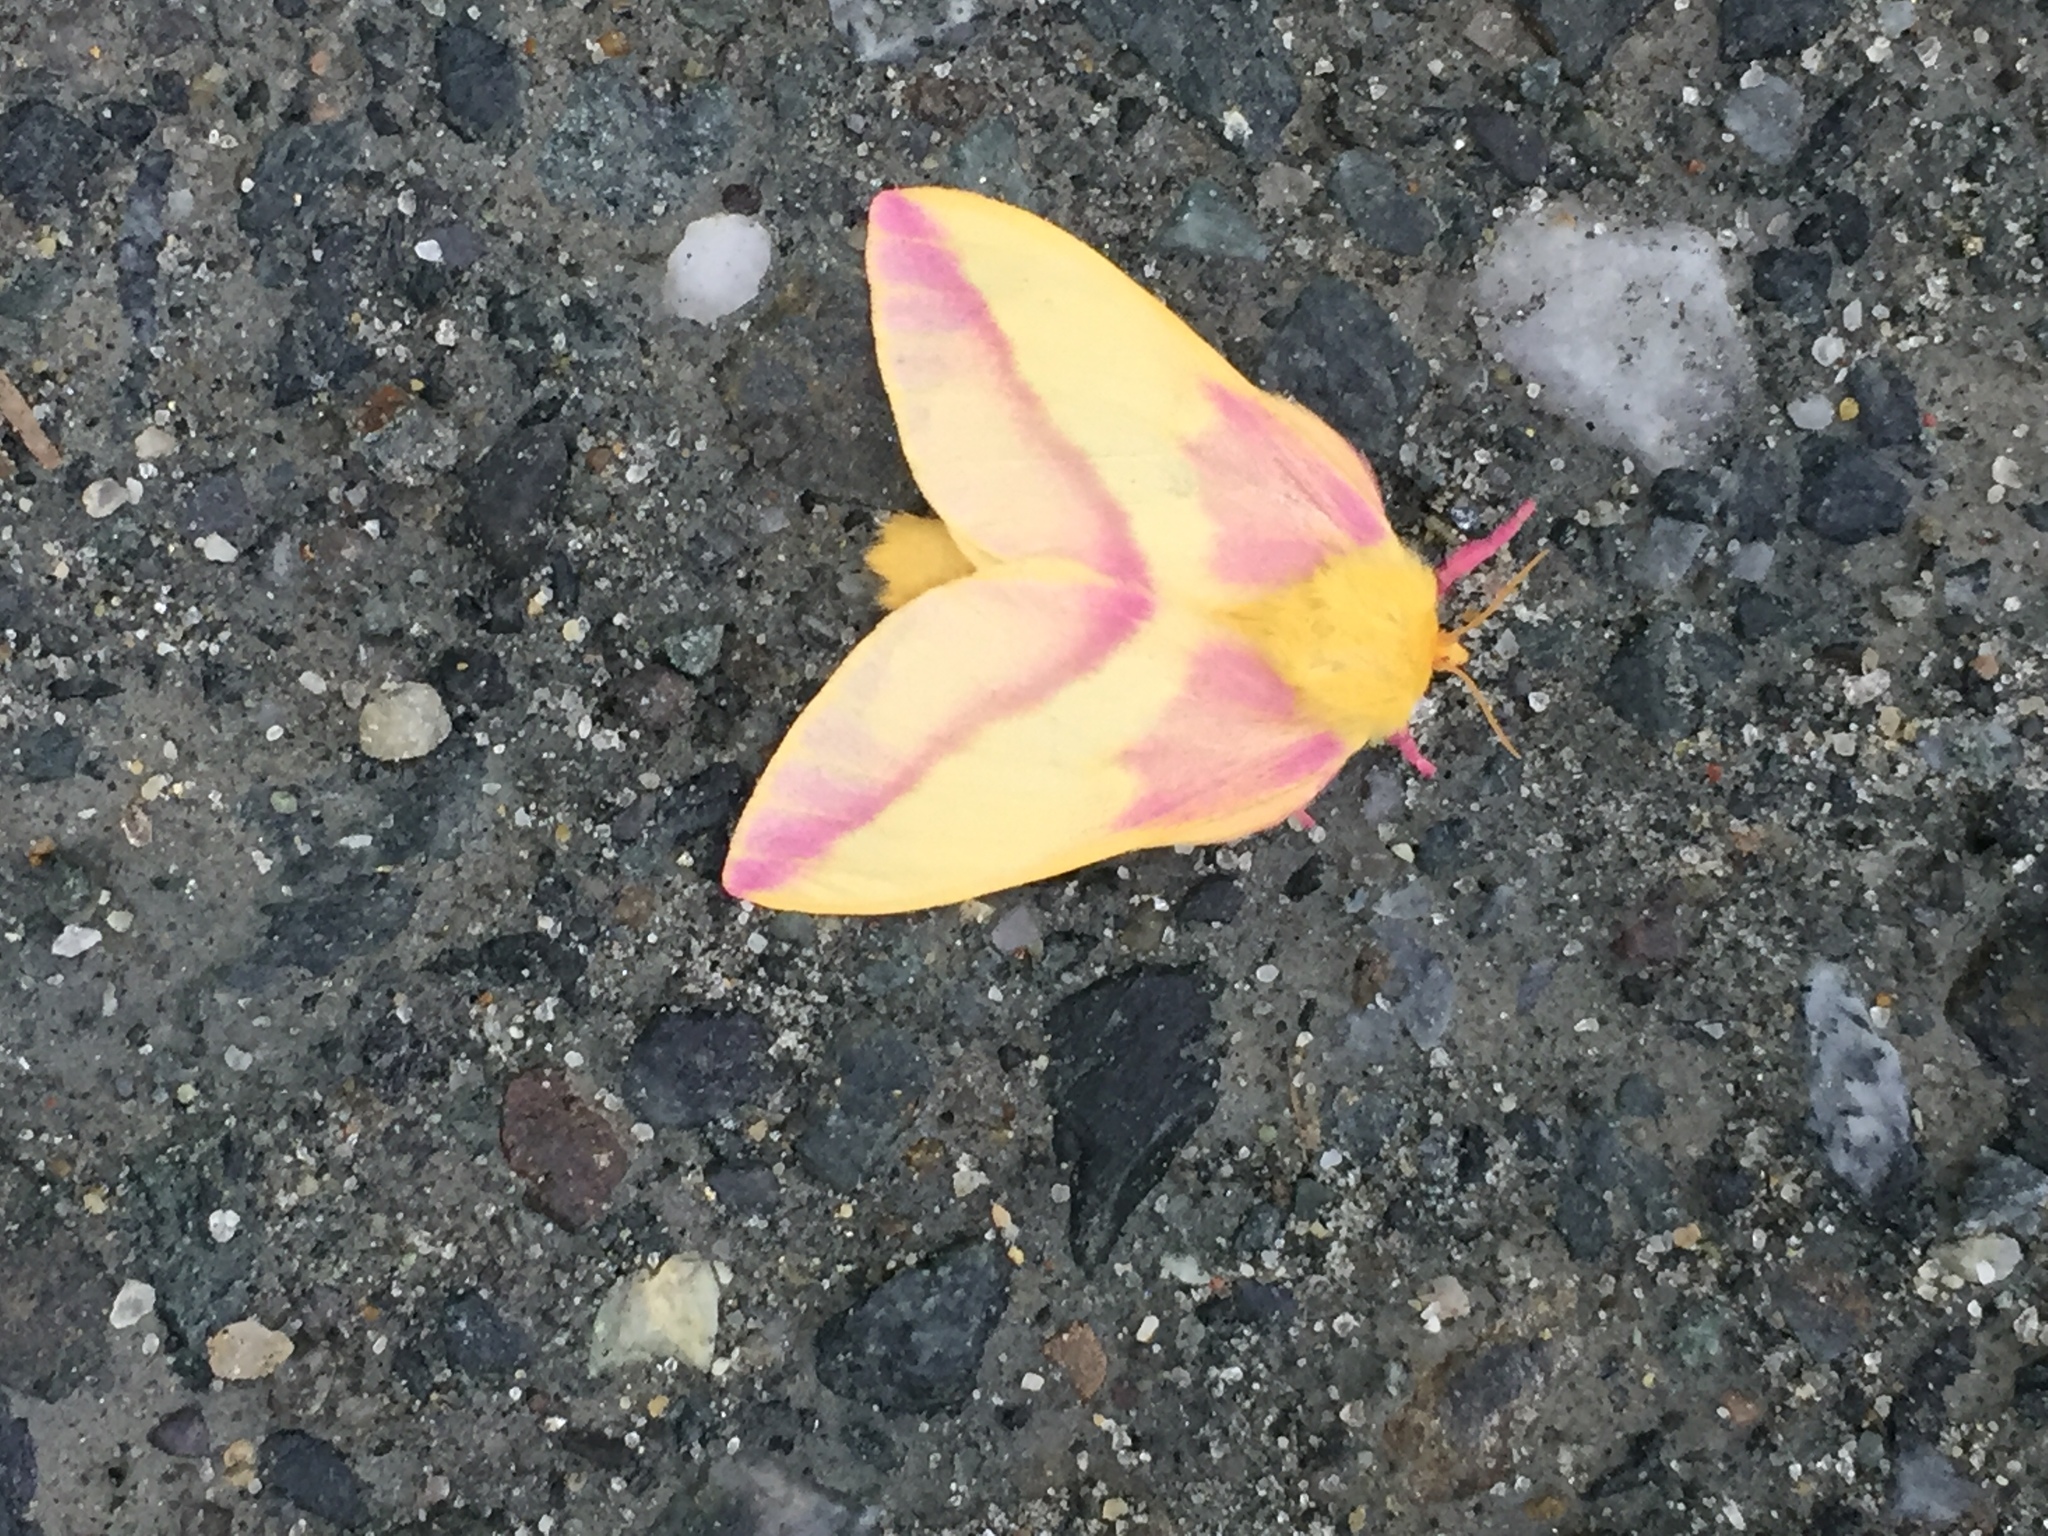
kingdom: Animalia
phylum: Arthropoda
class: Insecta
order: Lepidoptera
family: Saturniidae
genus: Dryocampa
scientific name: Dryocampa rubicunda
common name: Rosy maple moth
